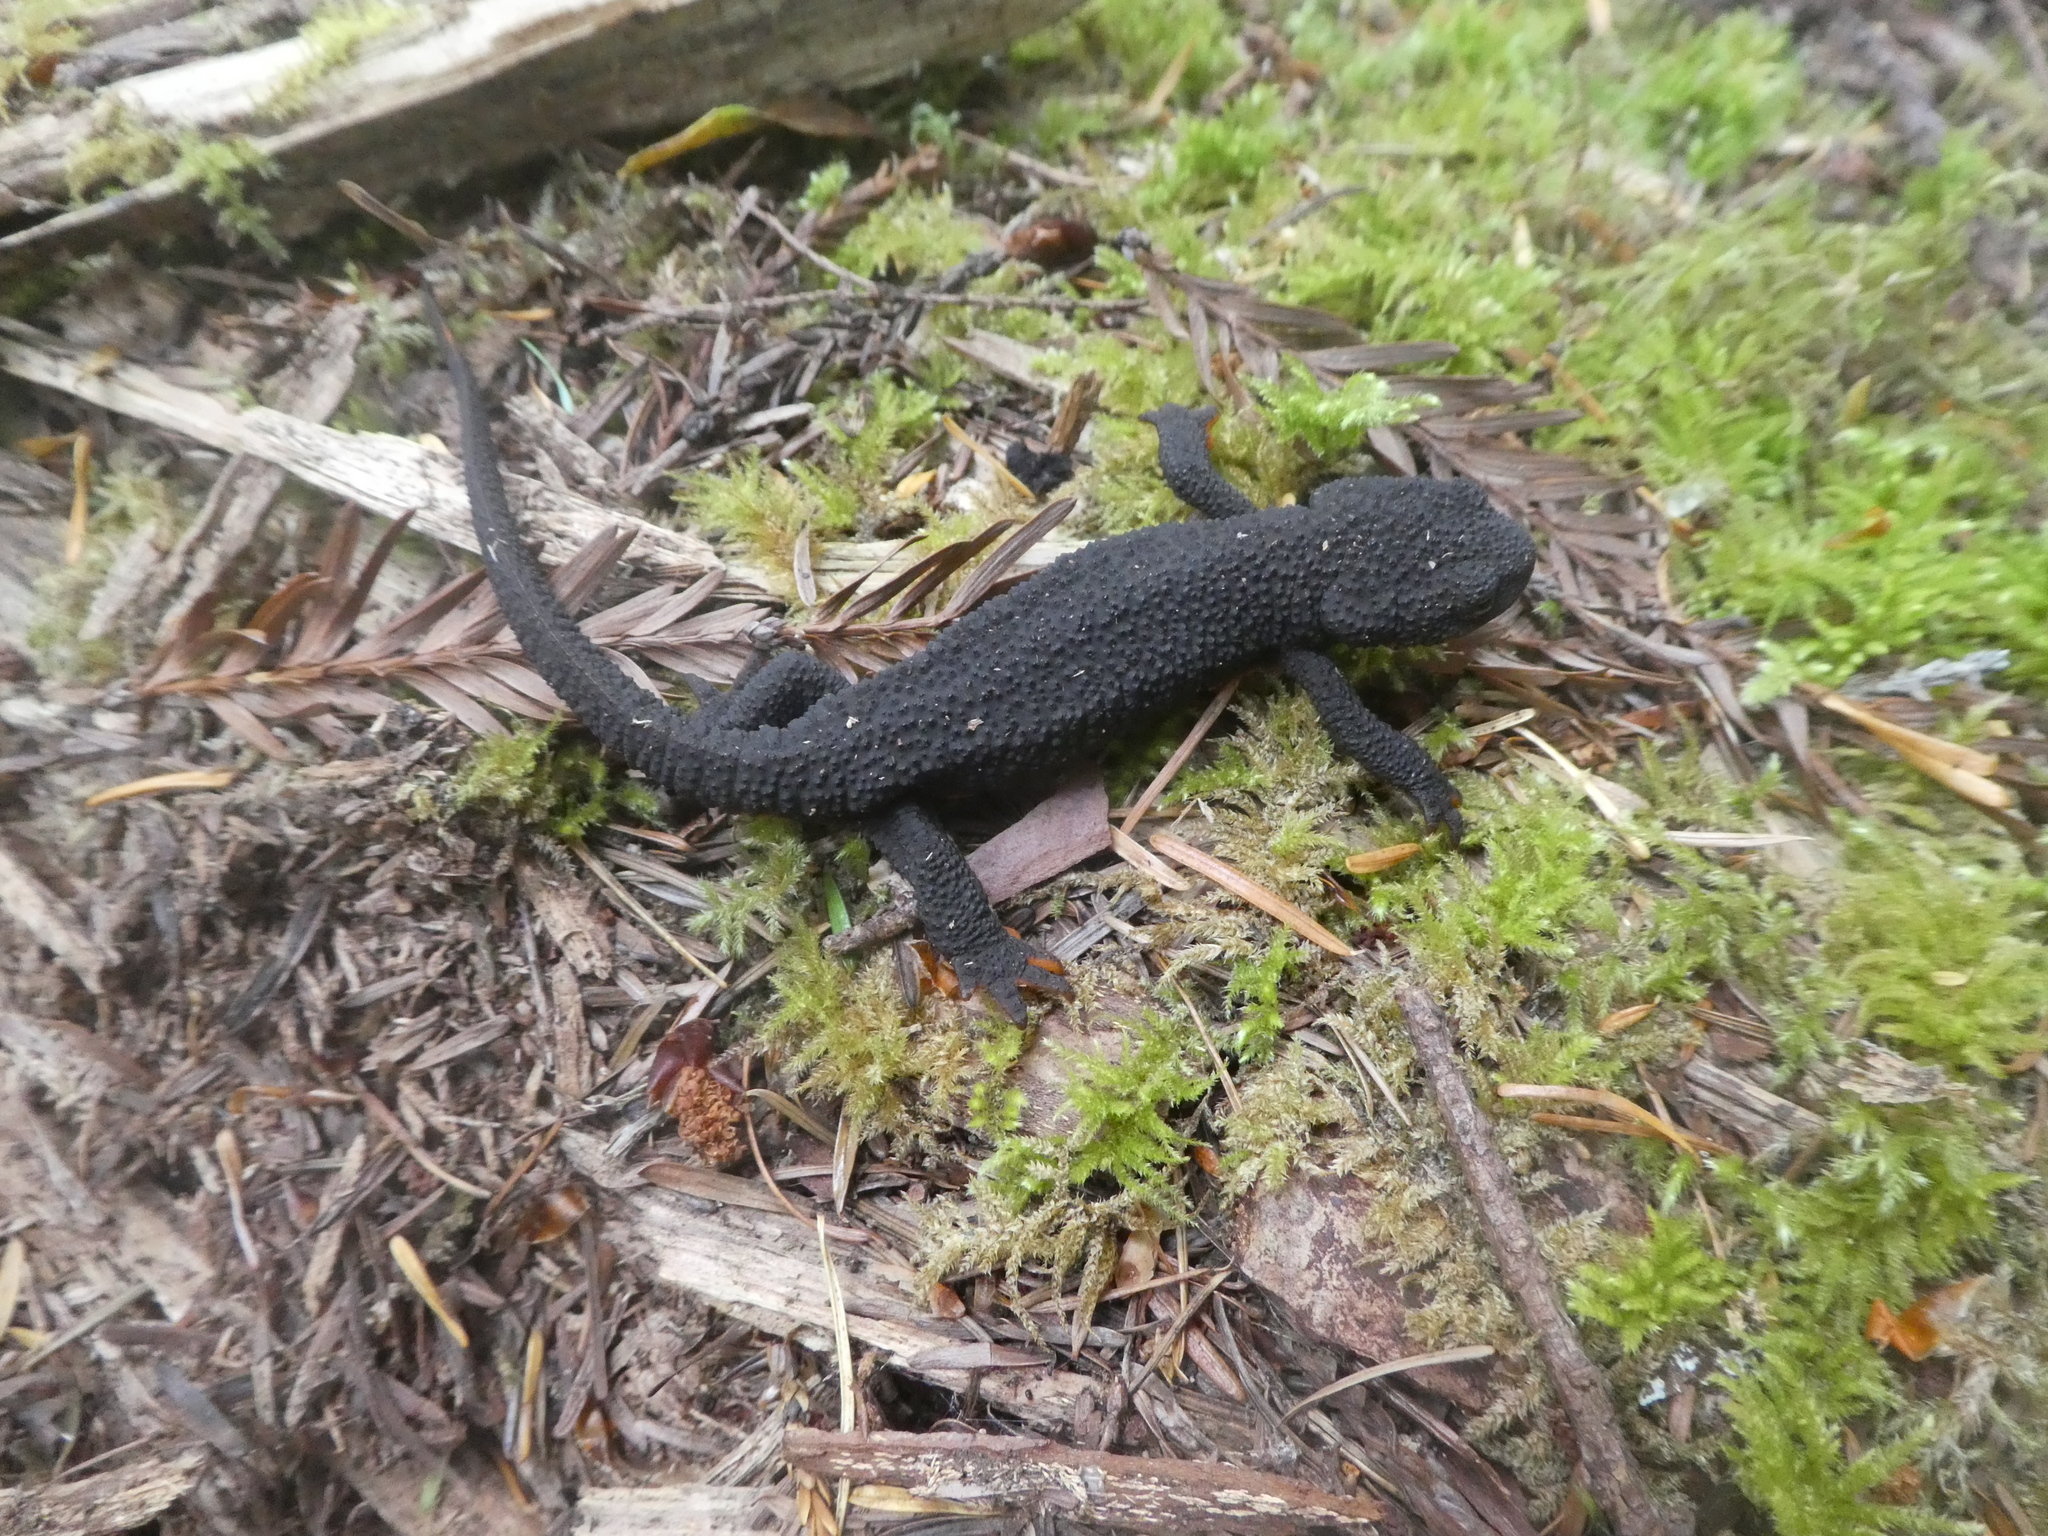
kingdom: Animalia
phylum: Chordata
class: Amphibia
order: Caudata
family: Salamandridae
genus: Taricha
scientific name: Taricha granulosa
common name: Roughskin newt
